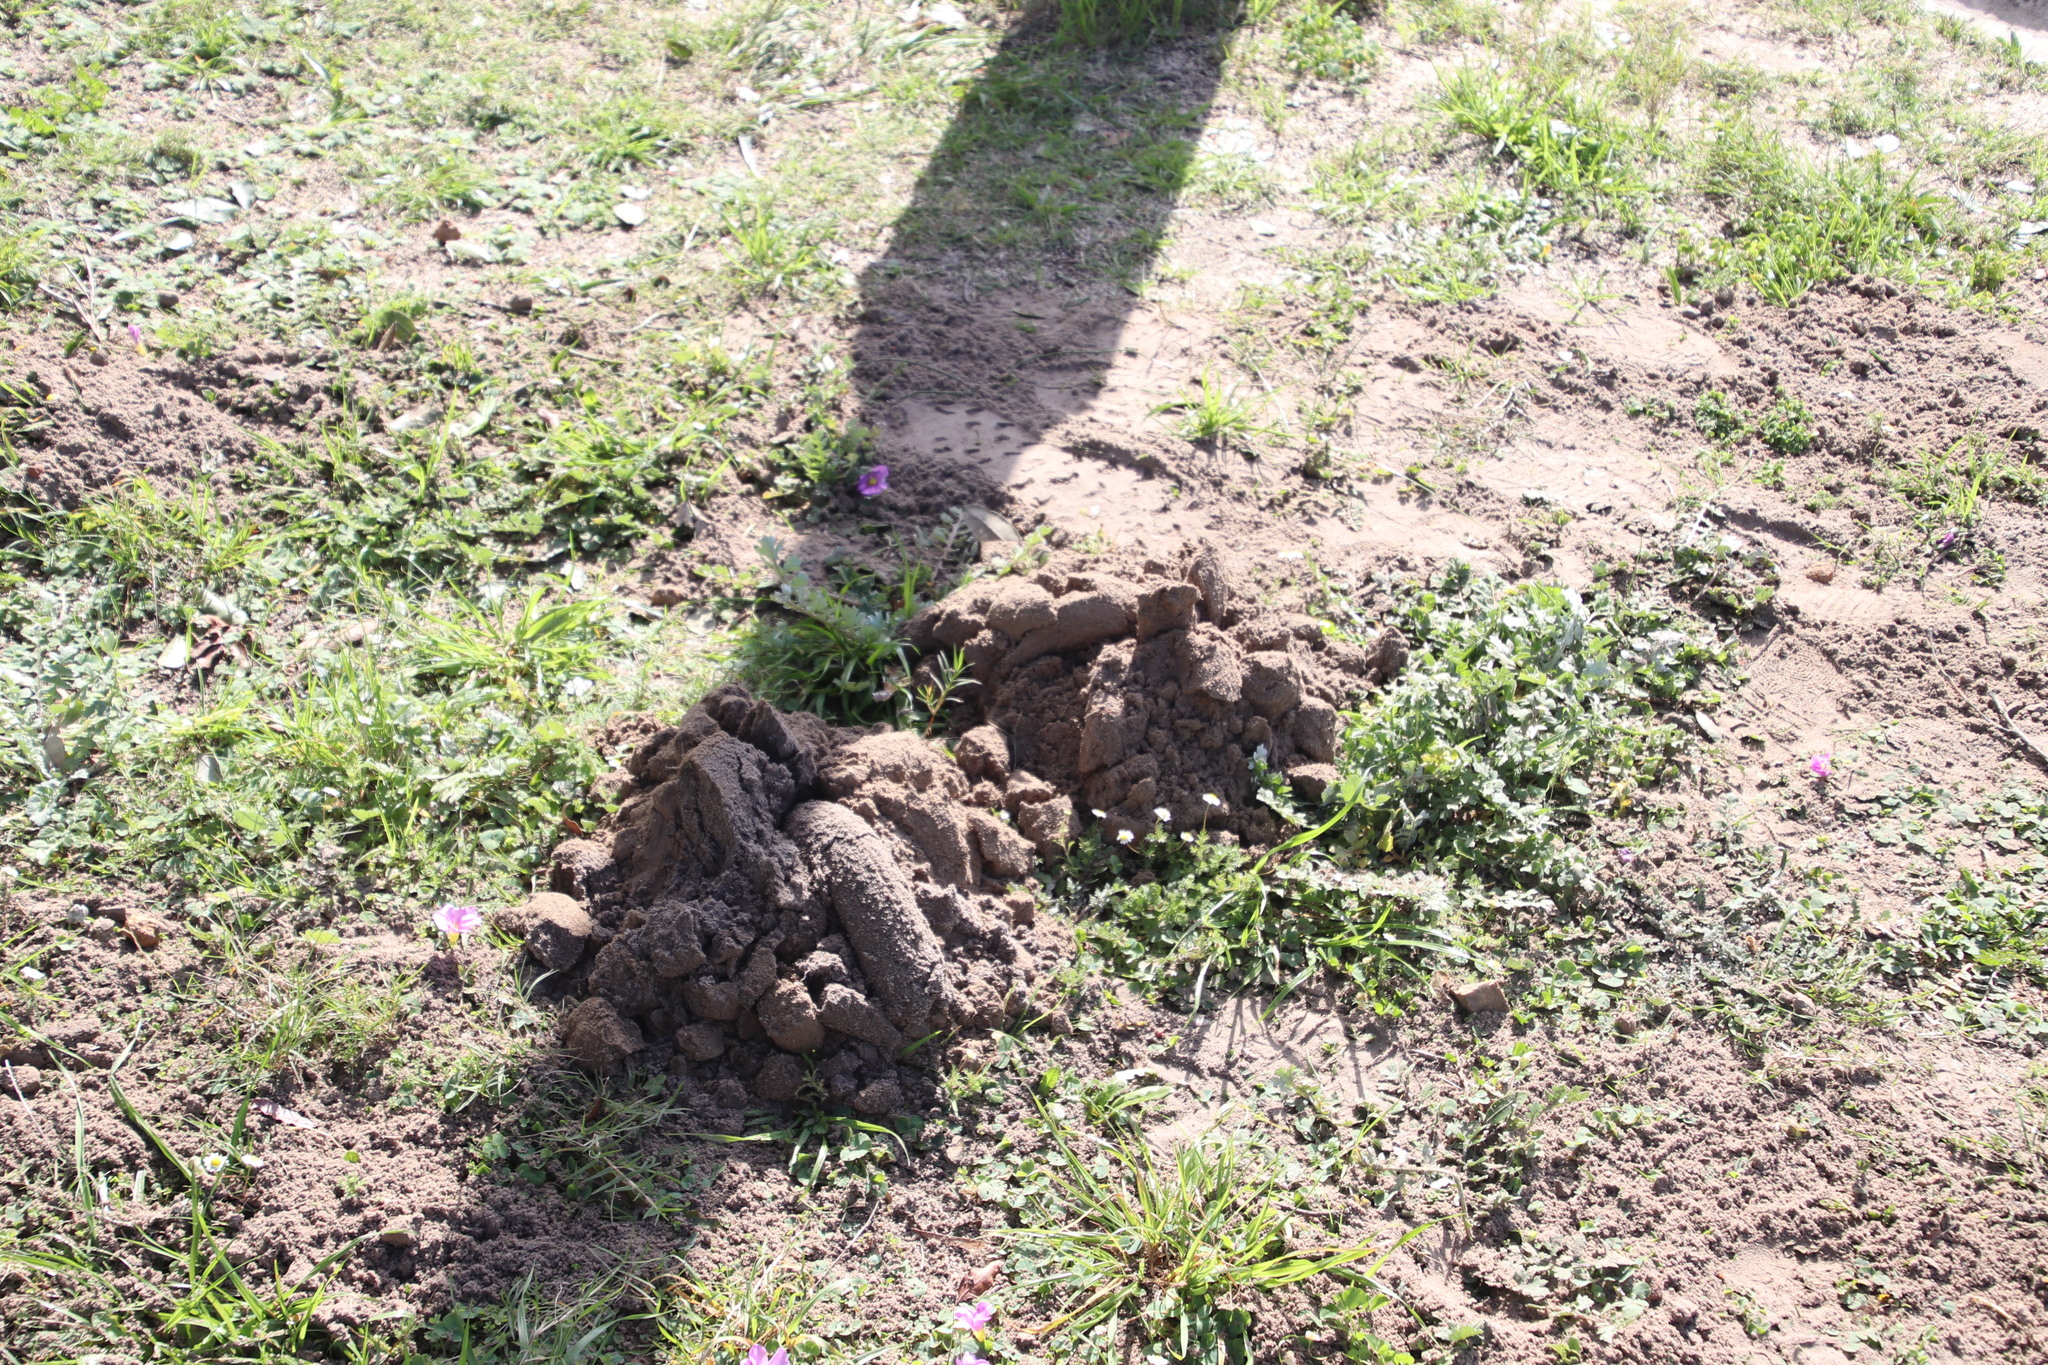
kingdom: Animalia
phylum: Chordata
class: Mammalia
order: Rodentia
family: Bathyergidae
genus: Bathyergus
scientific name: Bathyergus suillus
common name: Cape dune mole rat
